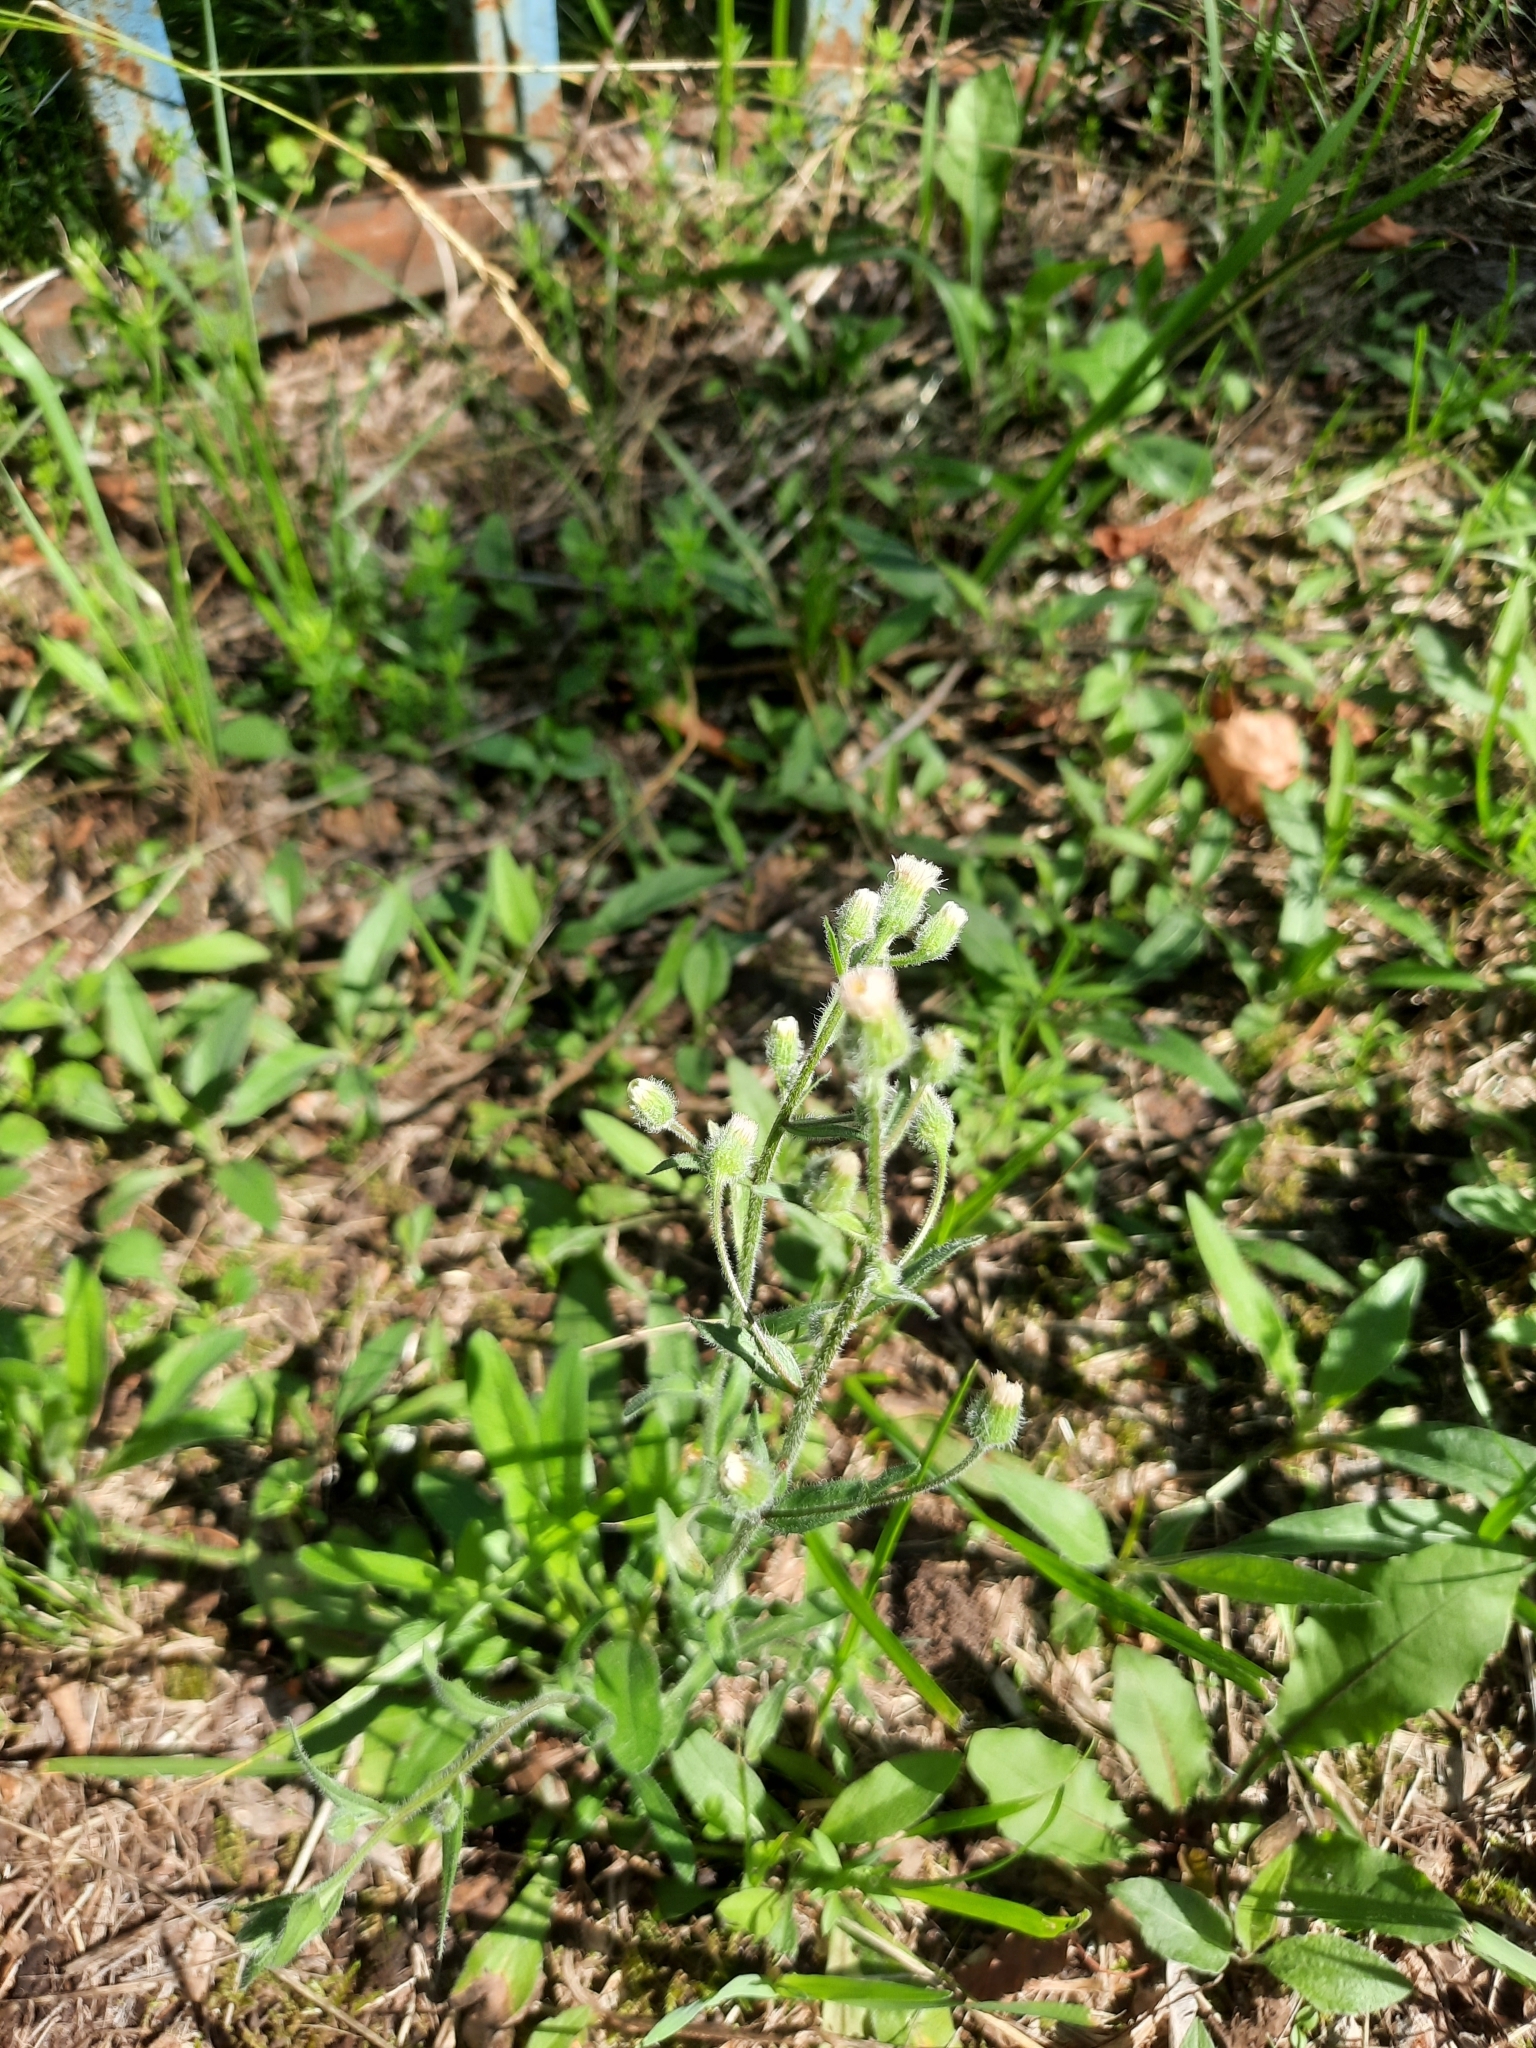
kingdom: Plantae
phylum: Tracheophyta
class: Magnoliopsida
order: Asterales
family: Asteraceae
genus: Erigeron
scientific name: Erigeron acris
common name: Blue fleabane
